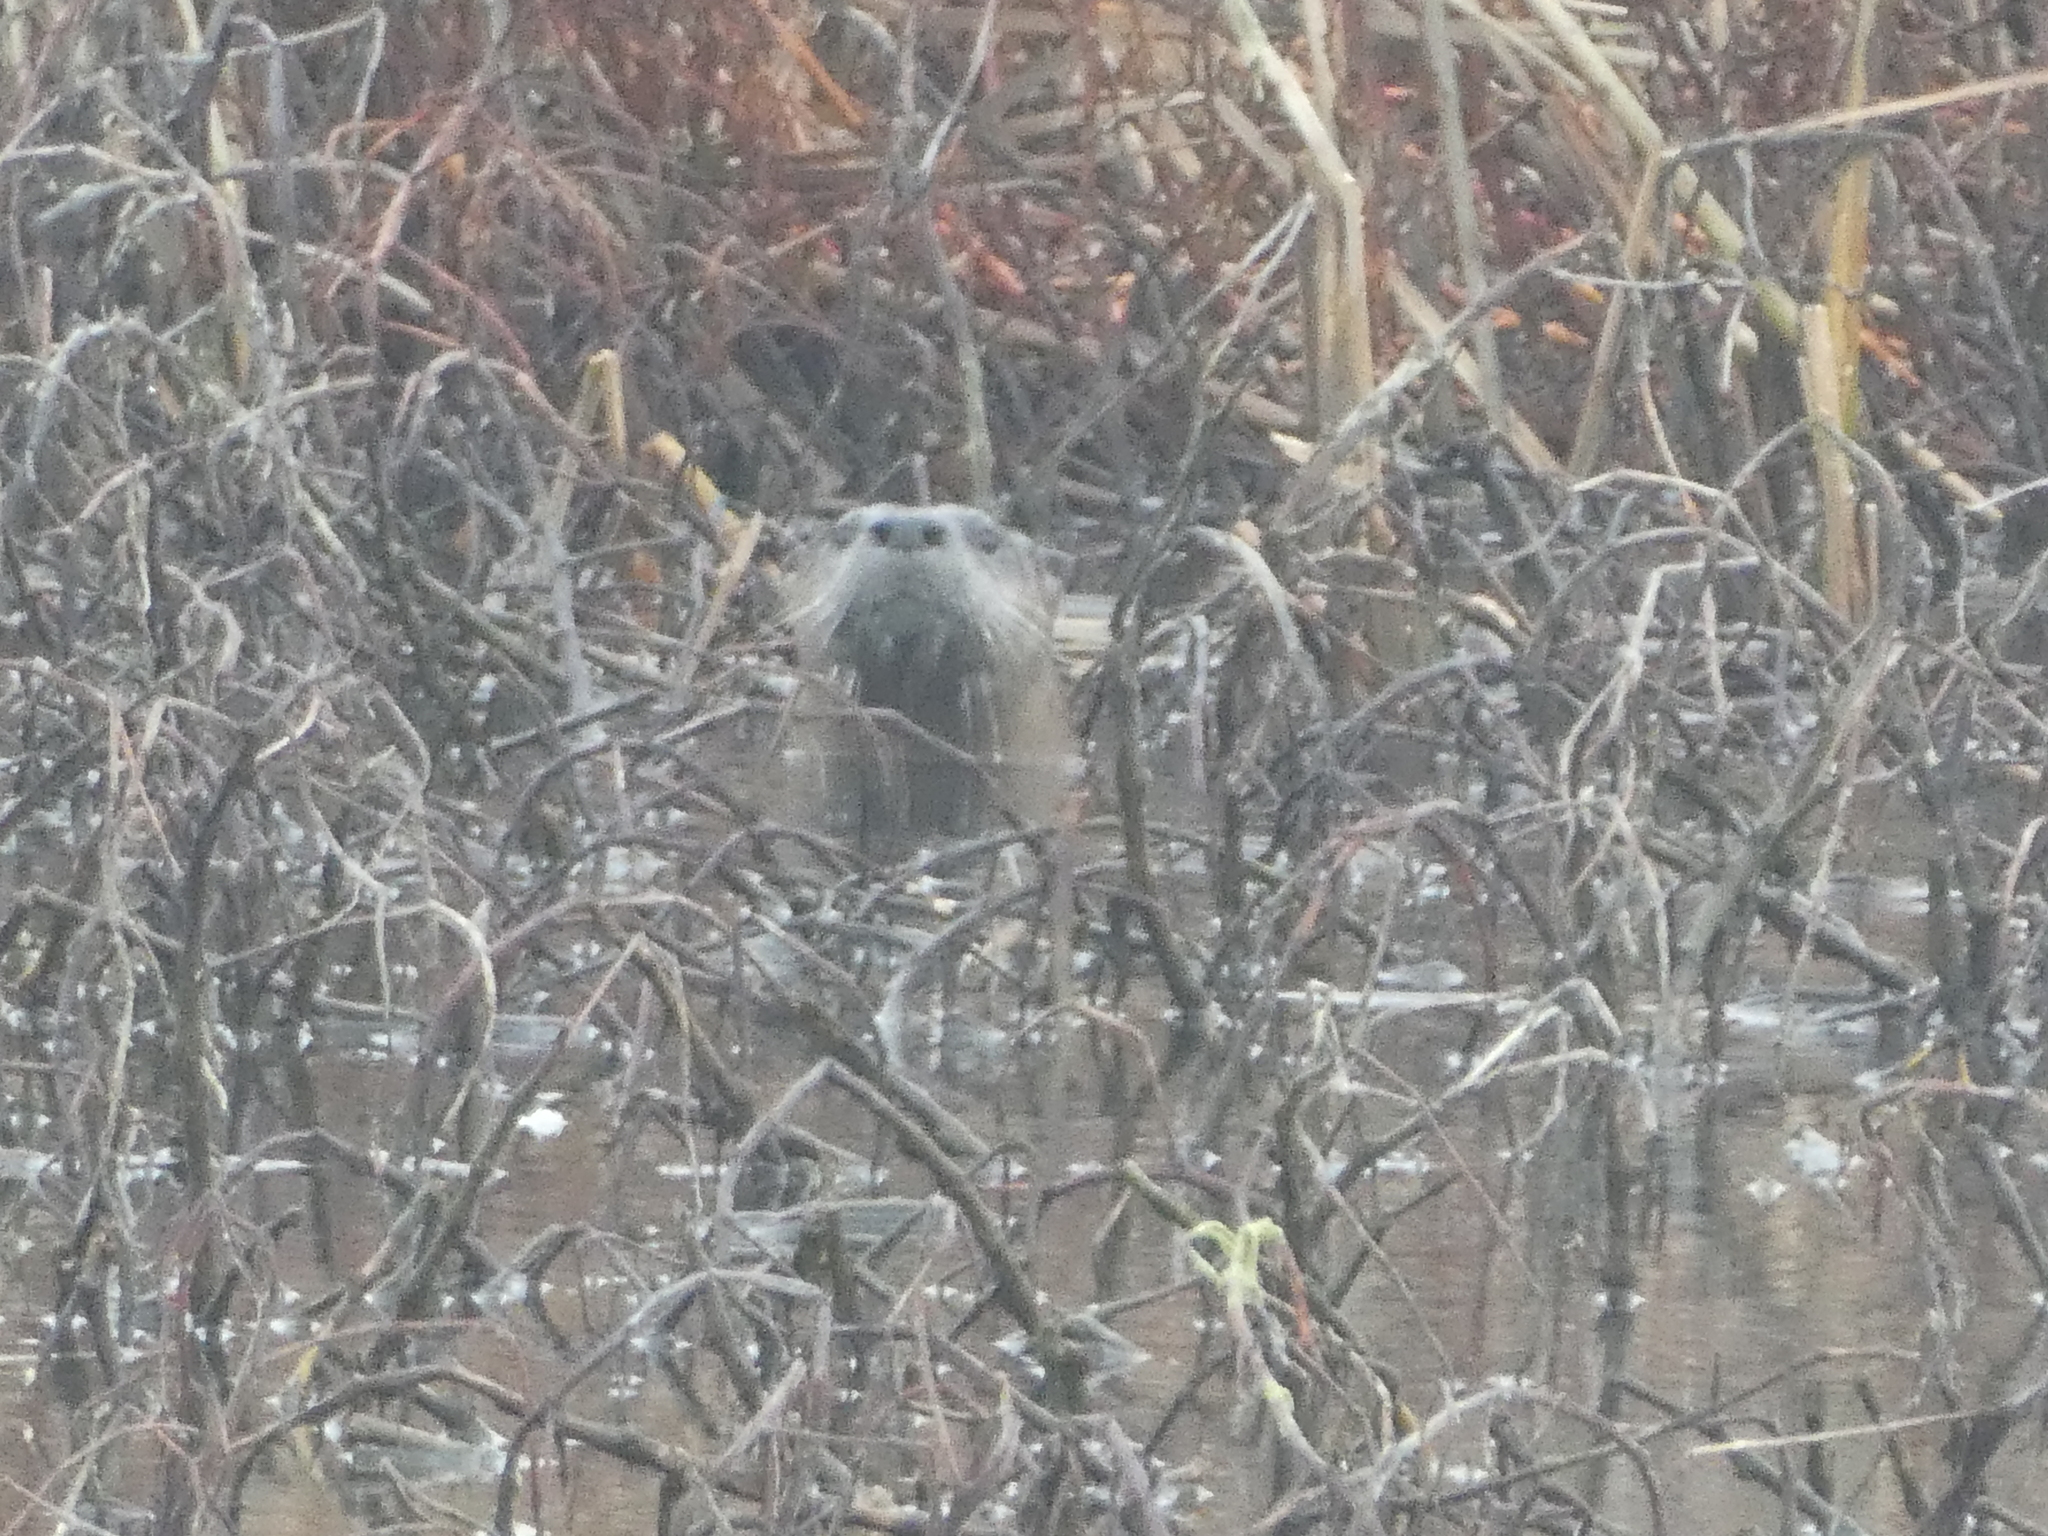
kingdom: Animalia
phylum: Chordata
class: Mammalia
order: Carnivora
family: Mustelidae
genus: Lontra
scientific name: Lontra canadensis
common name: North american river otter
